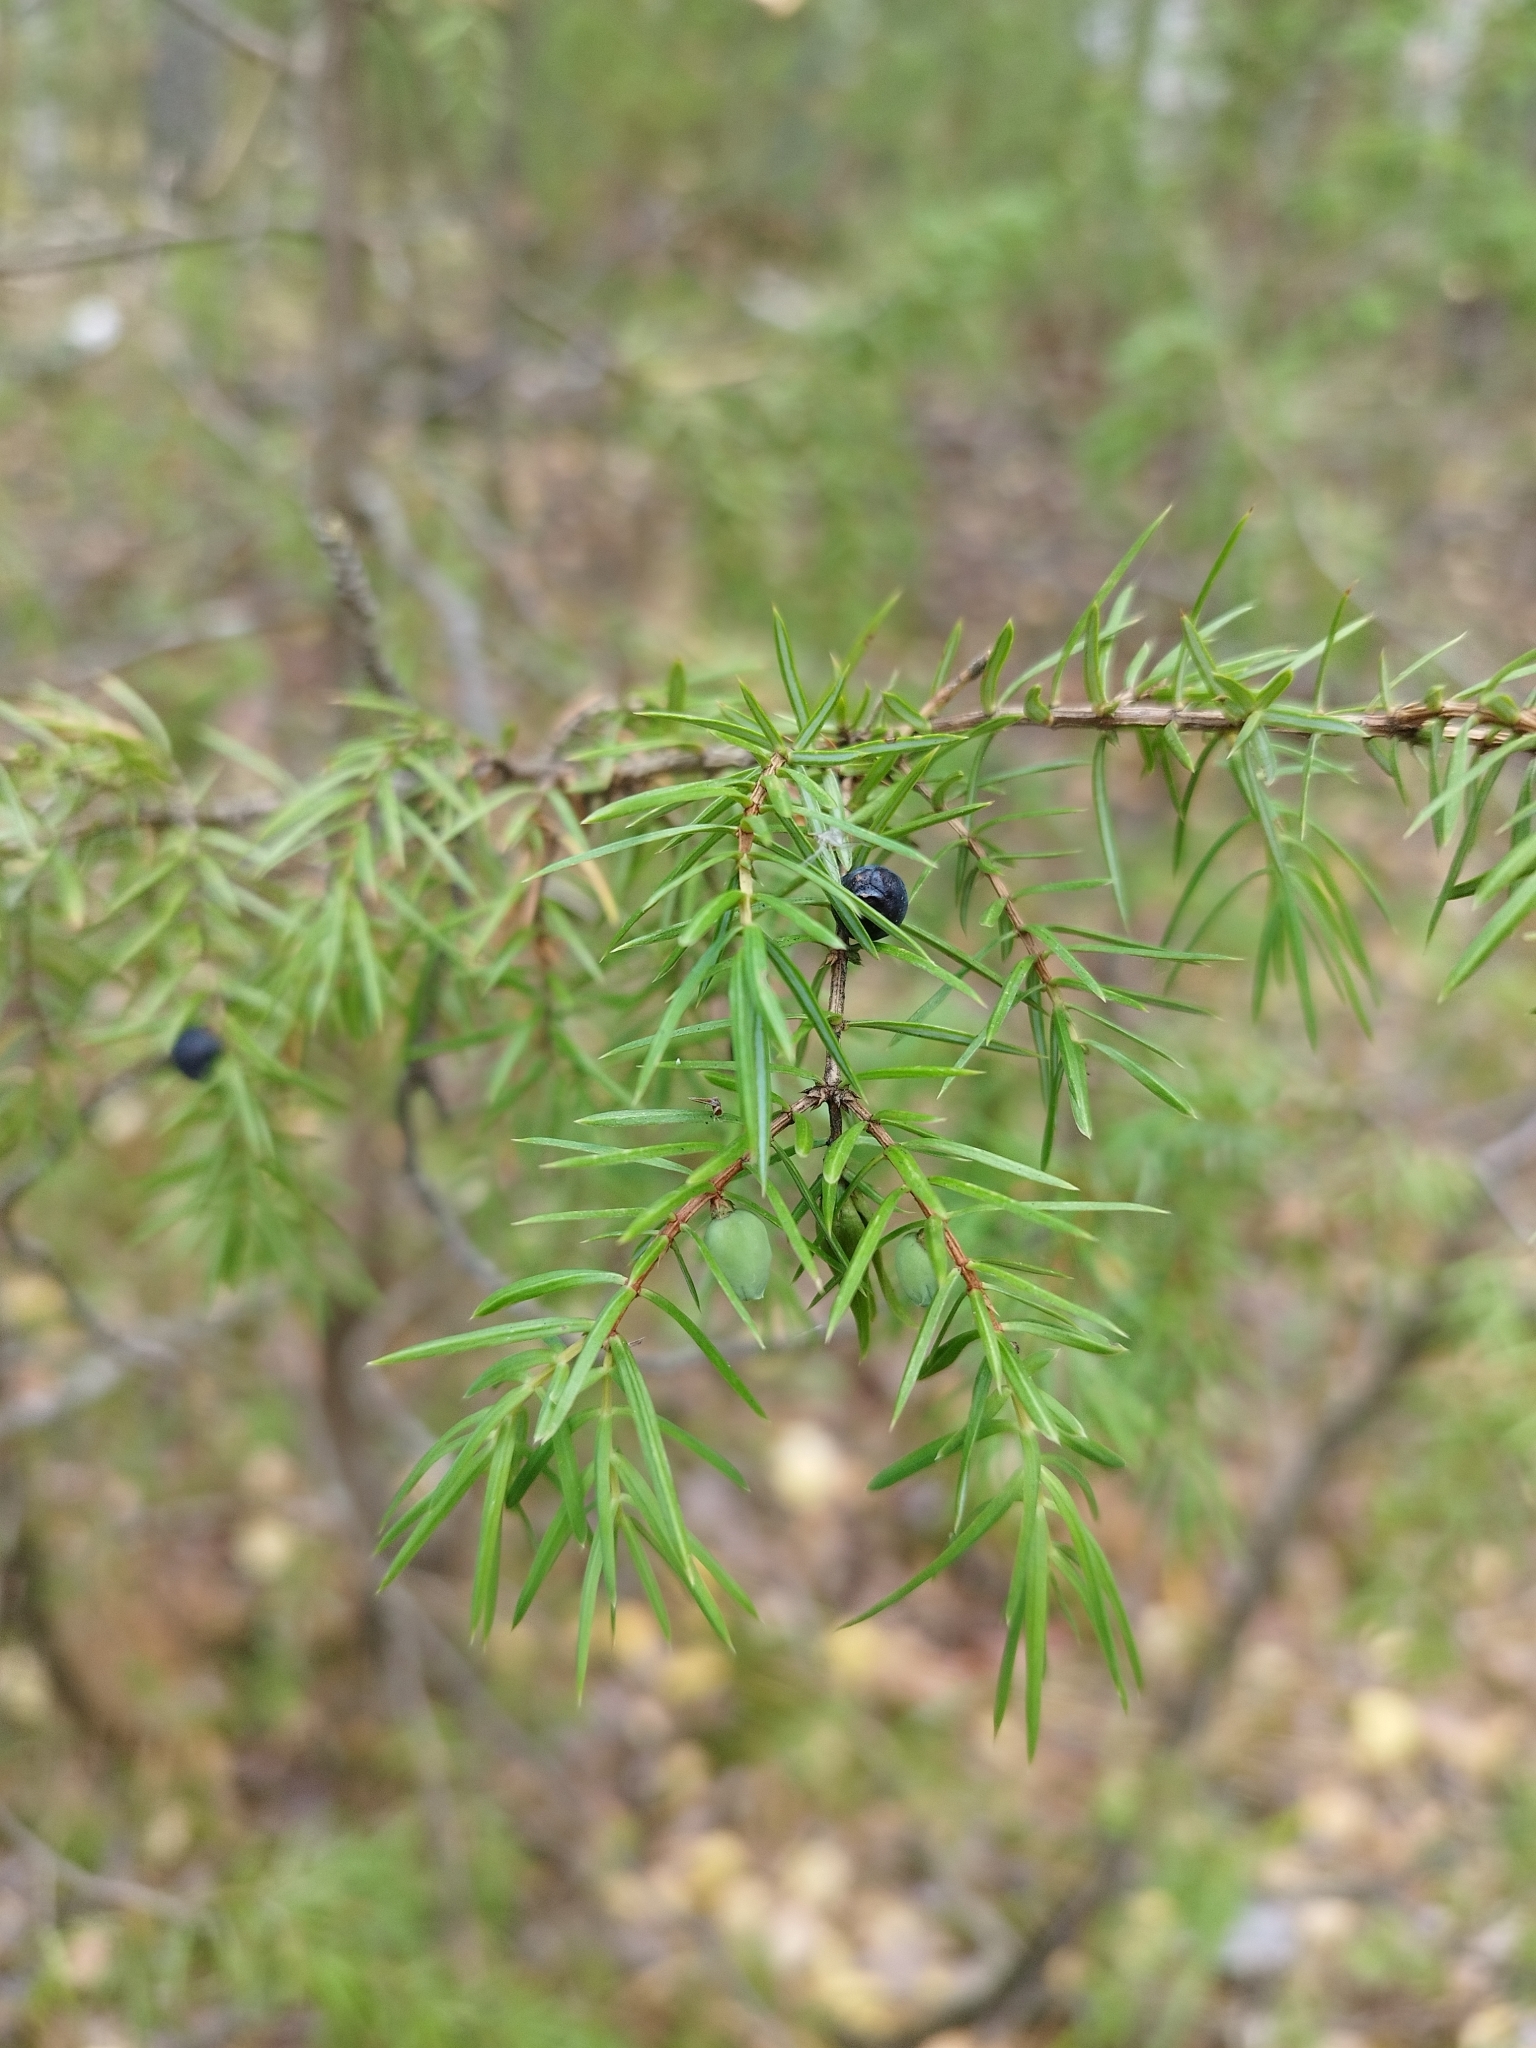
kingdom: Plantae
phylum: Tracheophyta
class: Pinopsida
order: Pinales
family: Cupressaceae
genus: Juniperus
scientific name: Juniperus communis
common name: Common juniper
